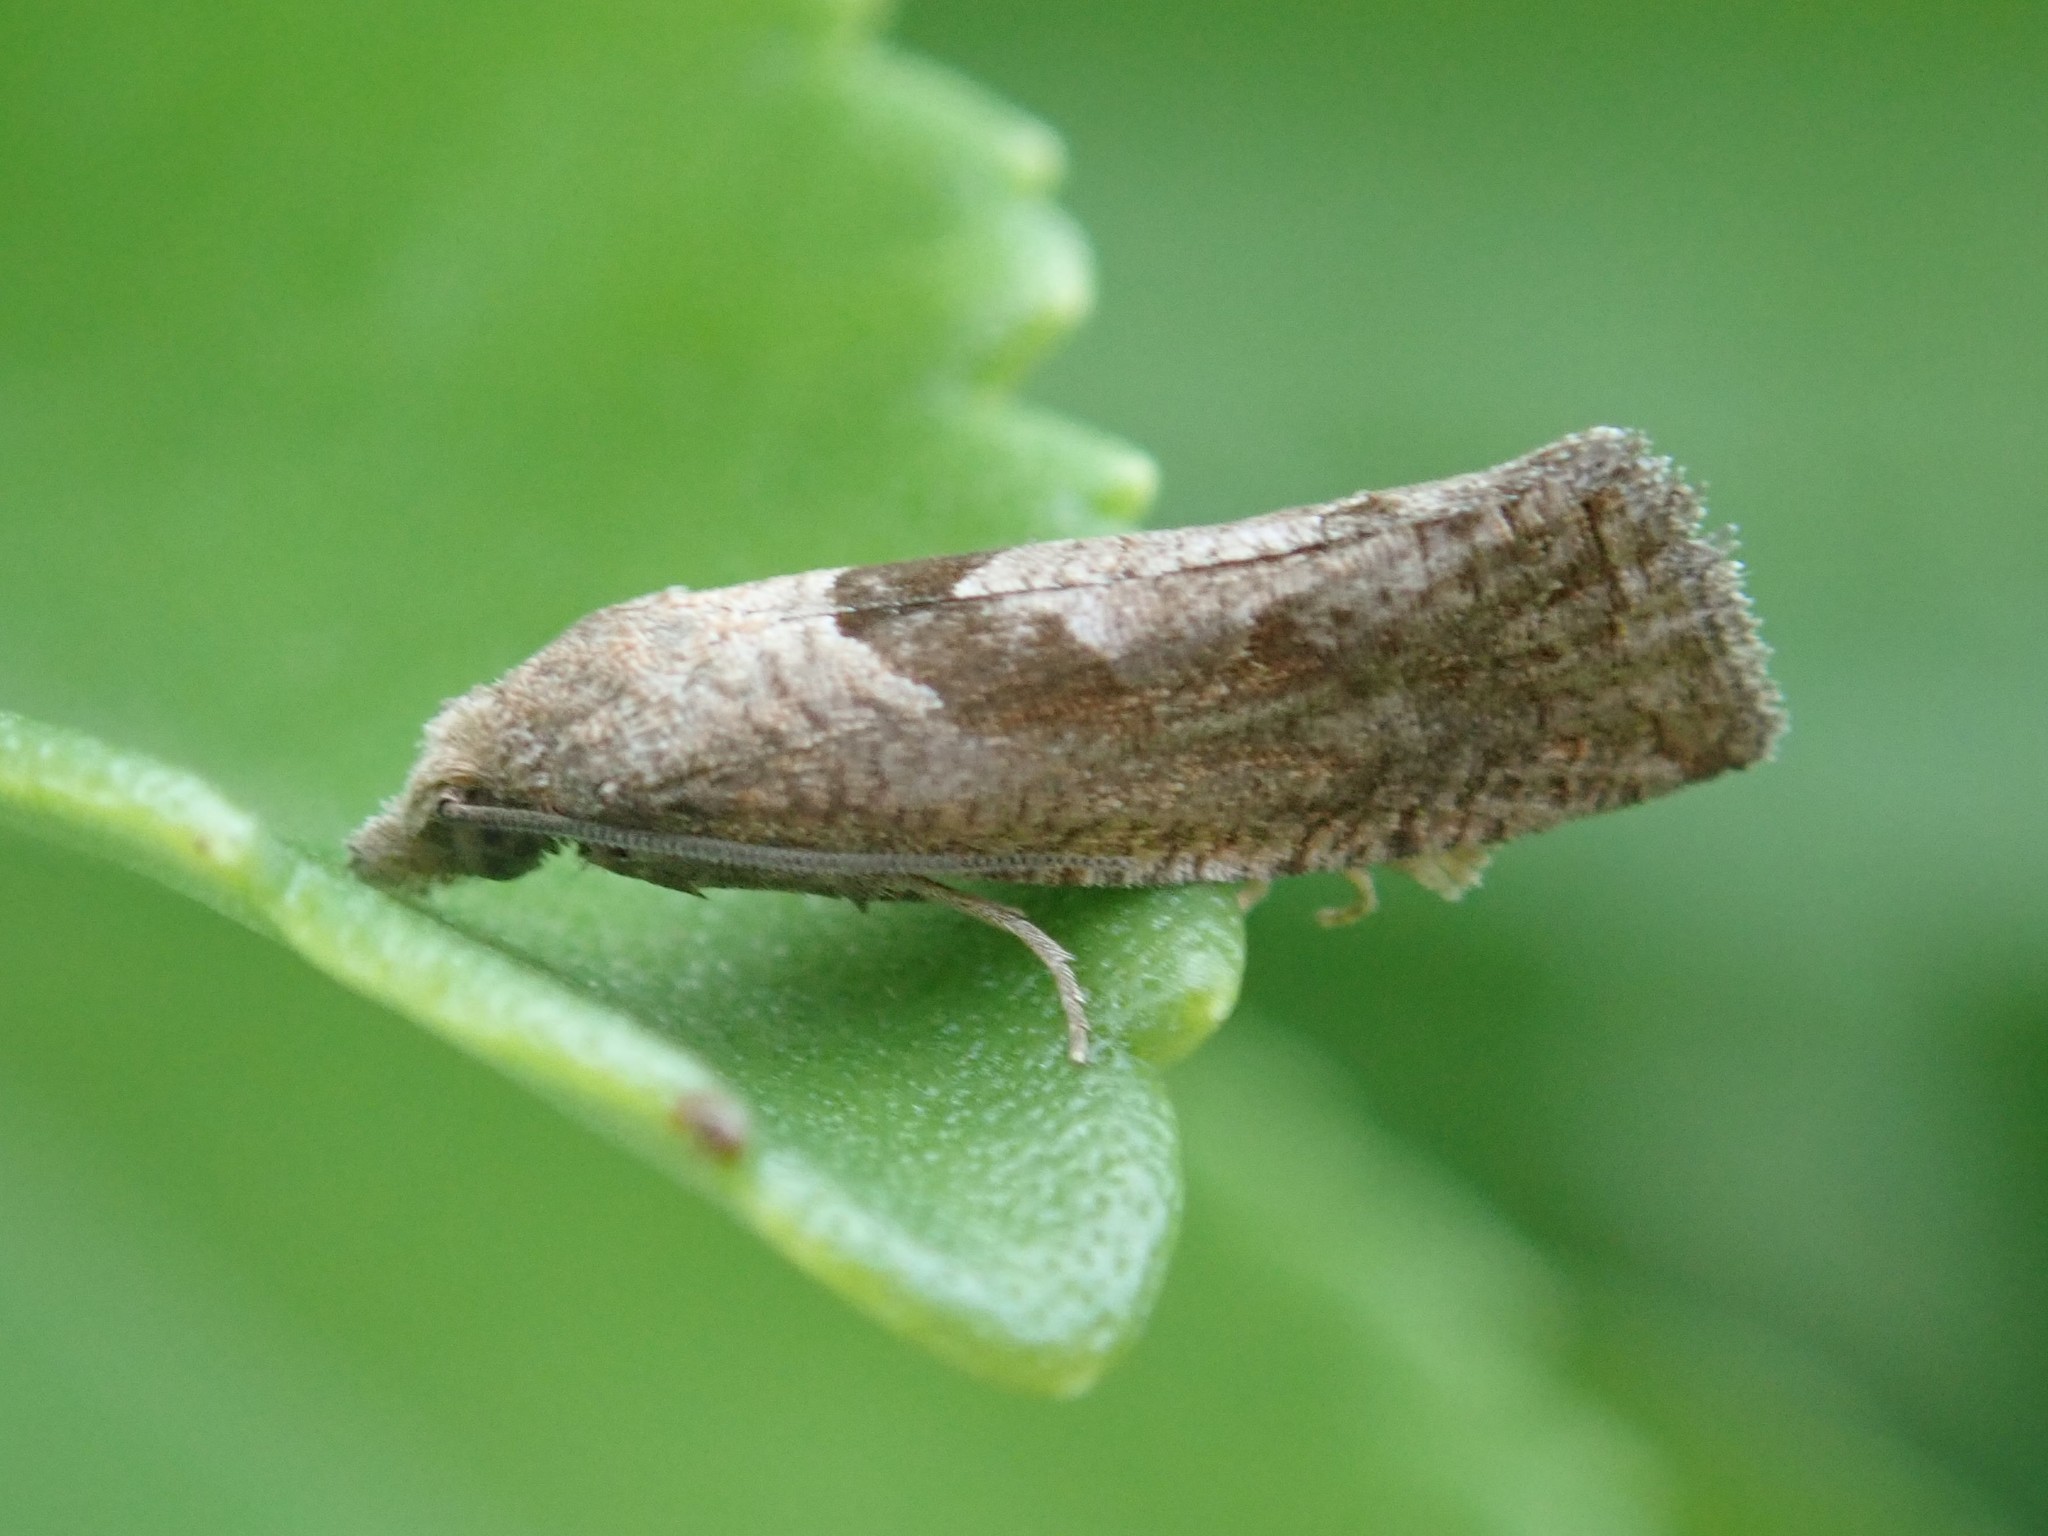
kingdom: Animalia
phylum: Arthropoda
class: Insecta
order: Lepidoptera
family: Tortricidae
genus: Pelochrista
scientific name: Pelochrista oraria
